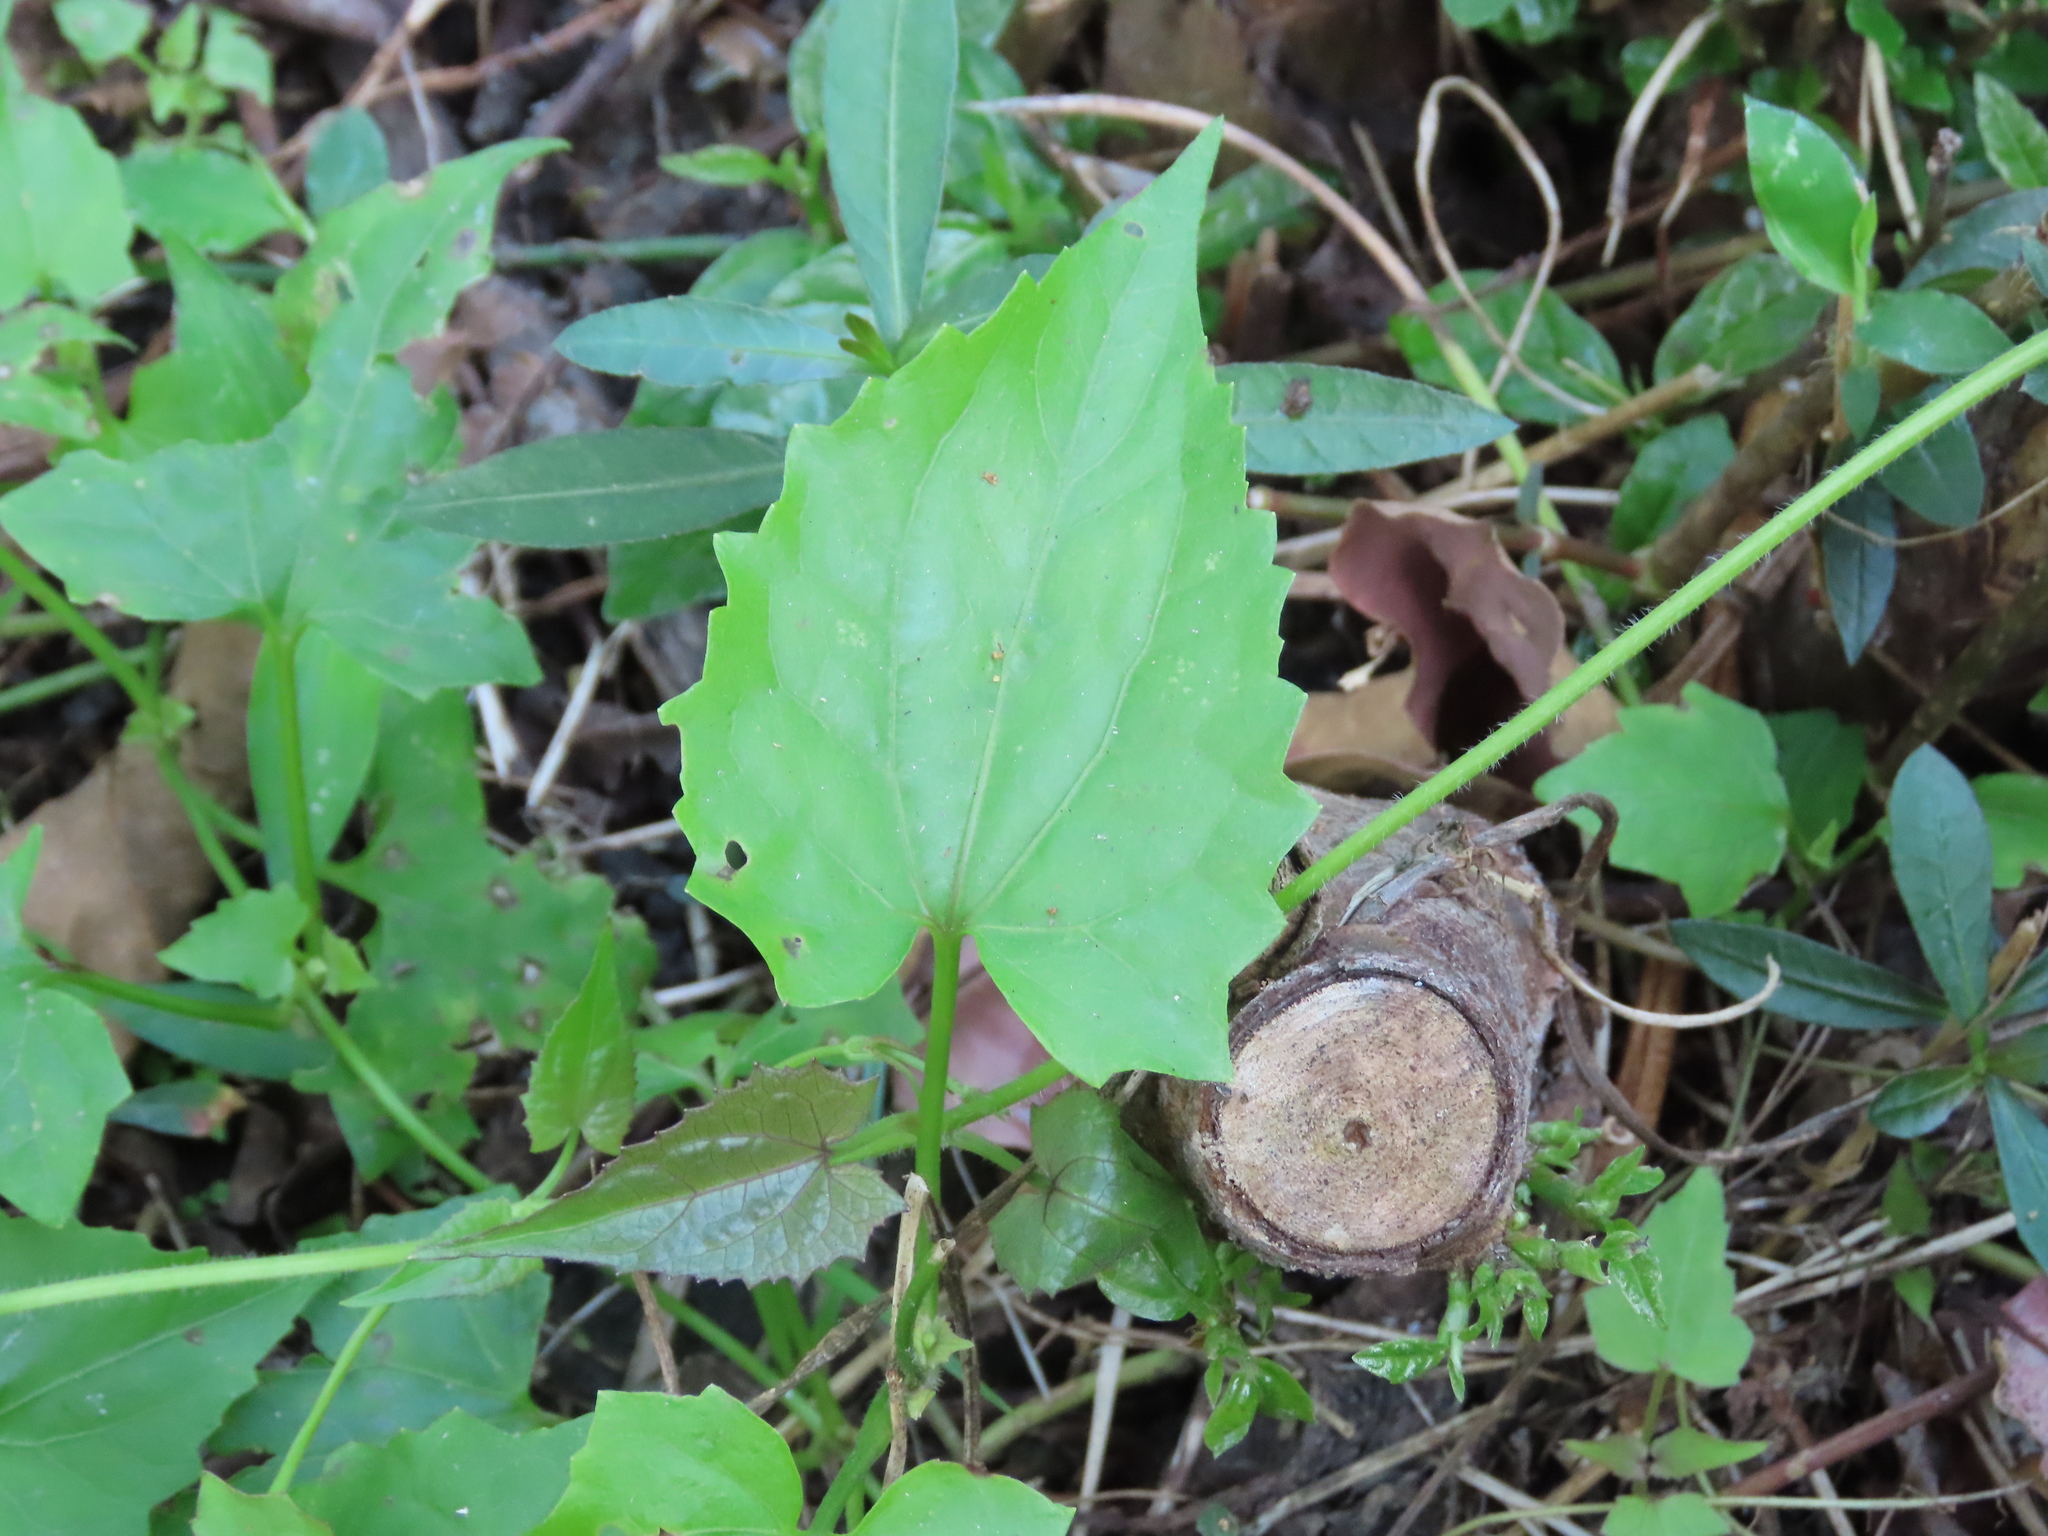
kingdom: Plantae
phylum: Tracheophyta
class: Magnoliopsida
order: Asterales
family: Asteraceae
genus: Mikania
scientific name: Mikania micrantha
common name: Mile-a-minute
